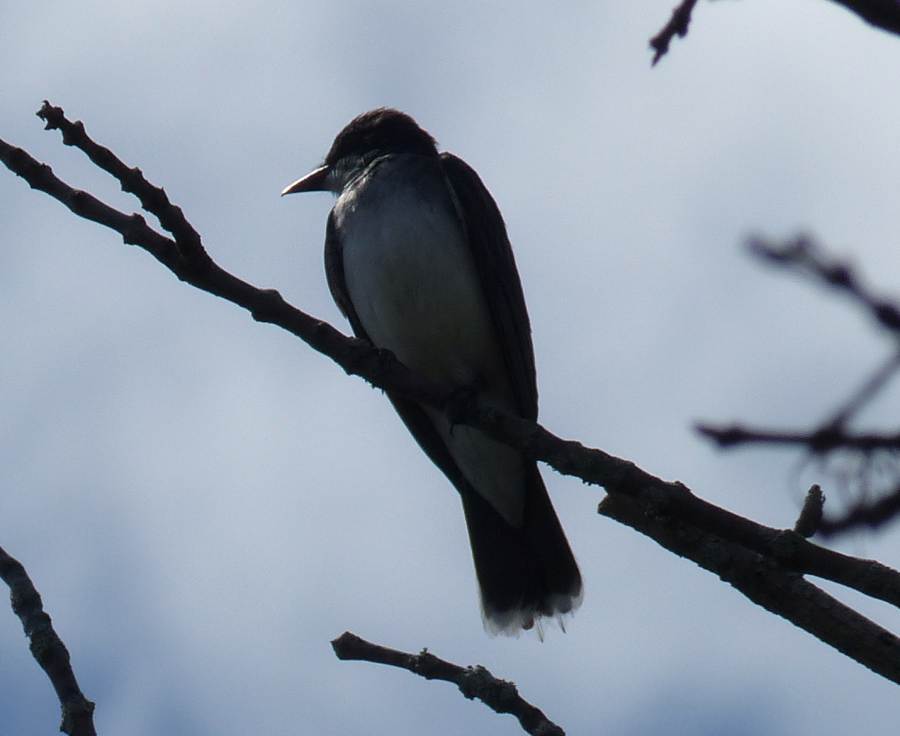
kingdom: Animalia
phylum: Chordata
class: Aves
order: Passeriformes
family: Tyrannidae
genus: Tyrannus
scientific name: Tyrannus tyrannus
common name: Eastern kingbird
